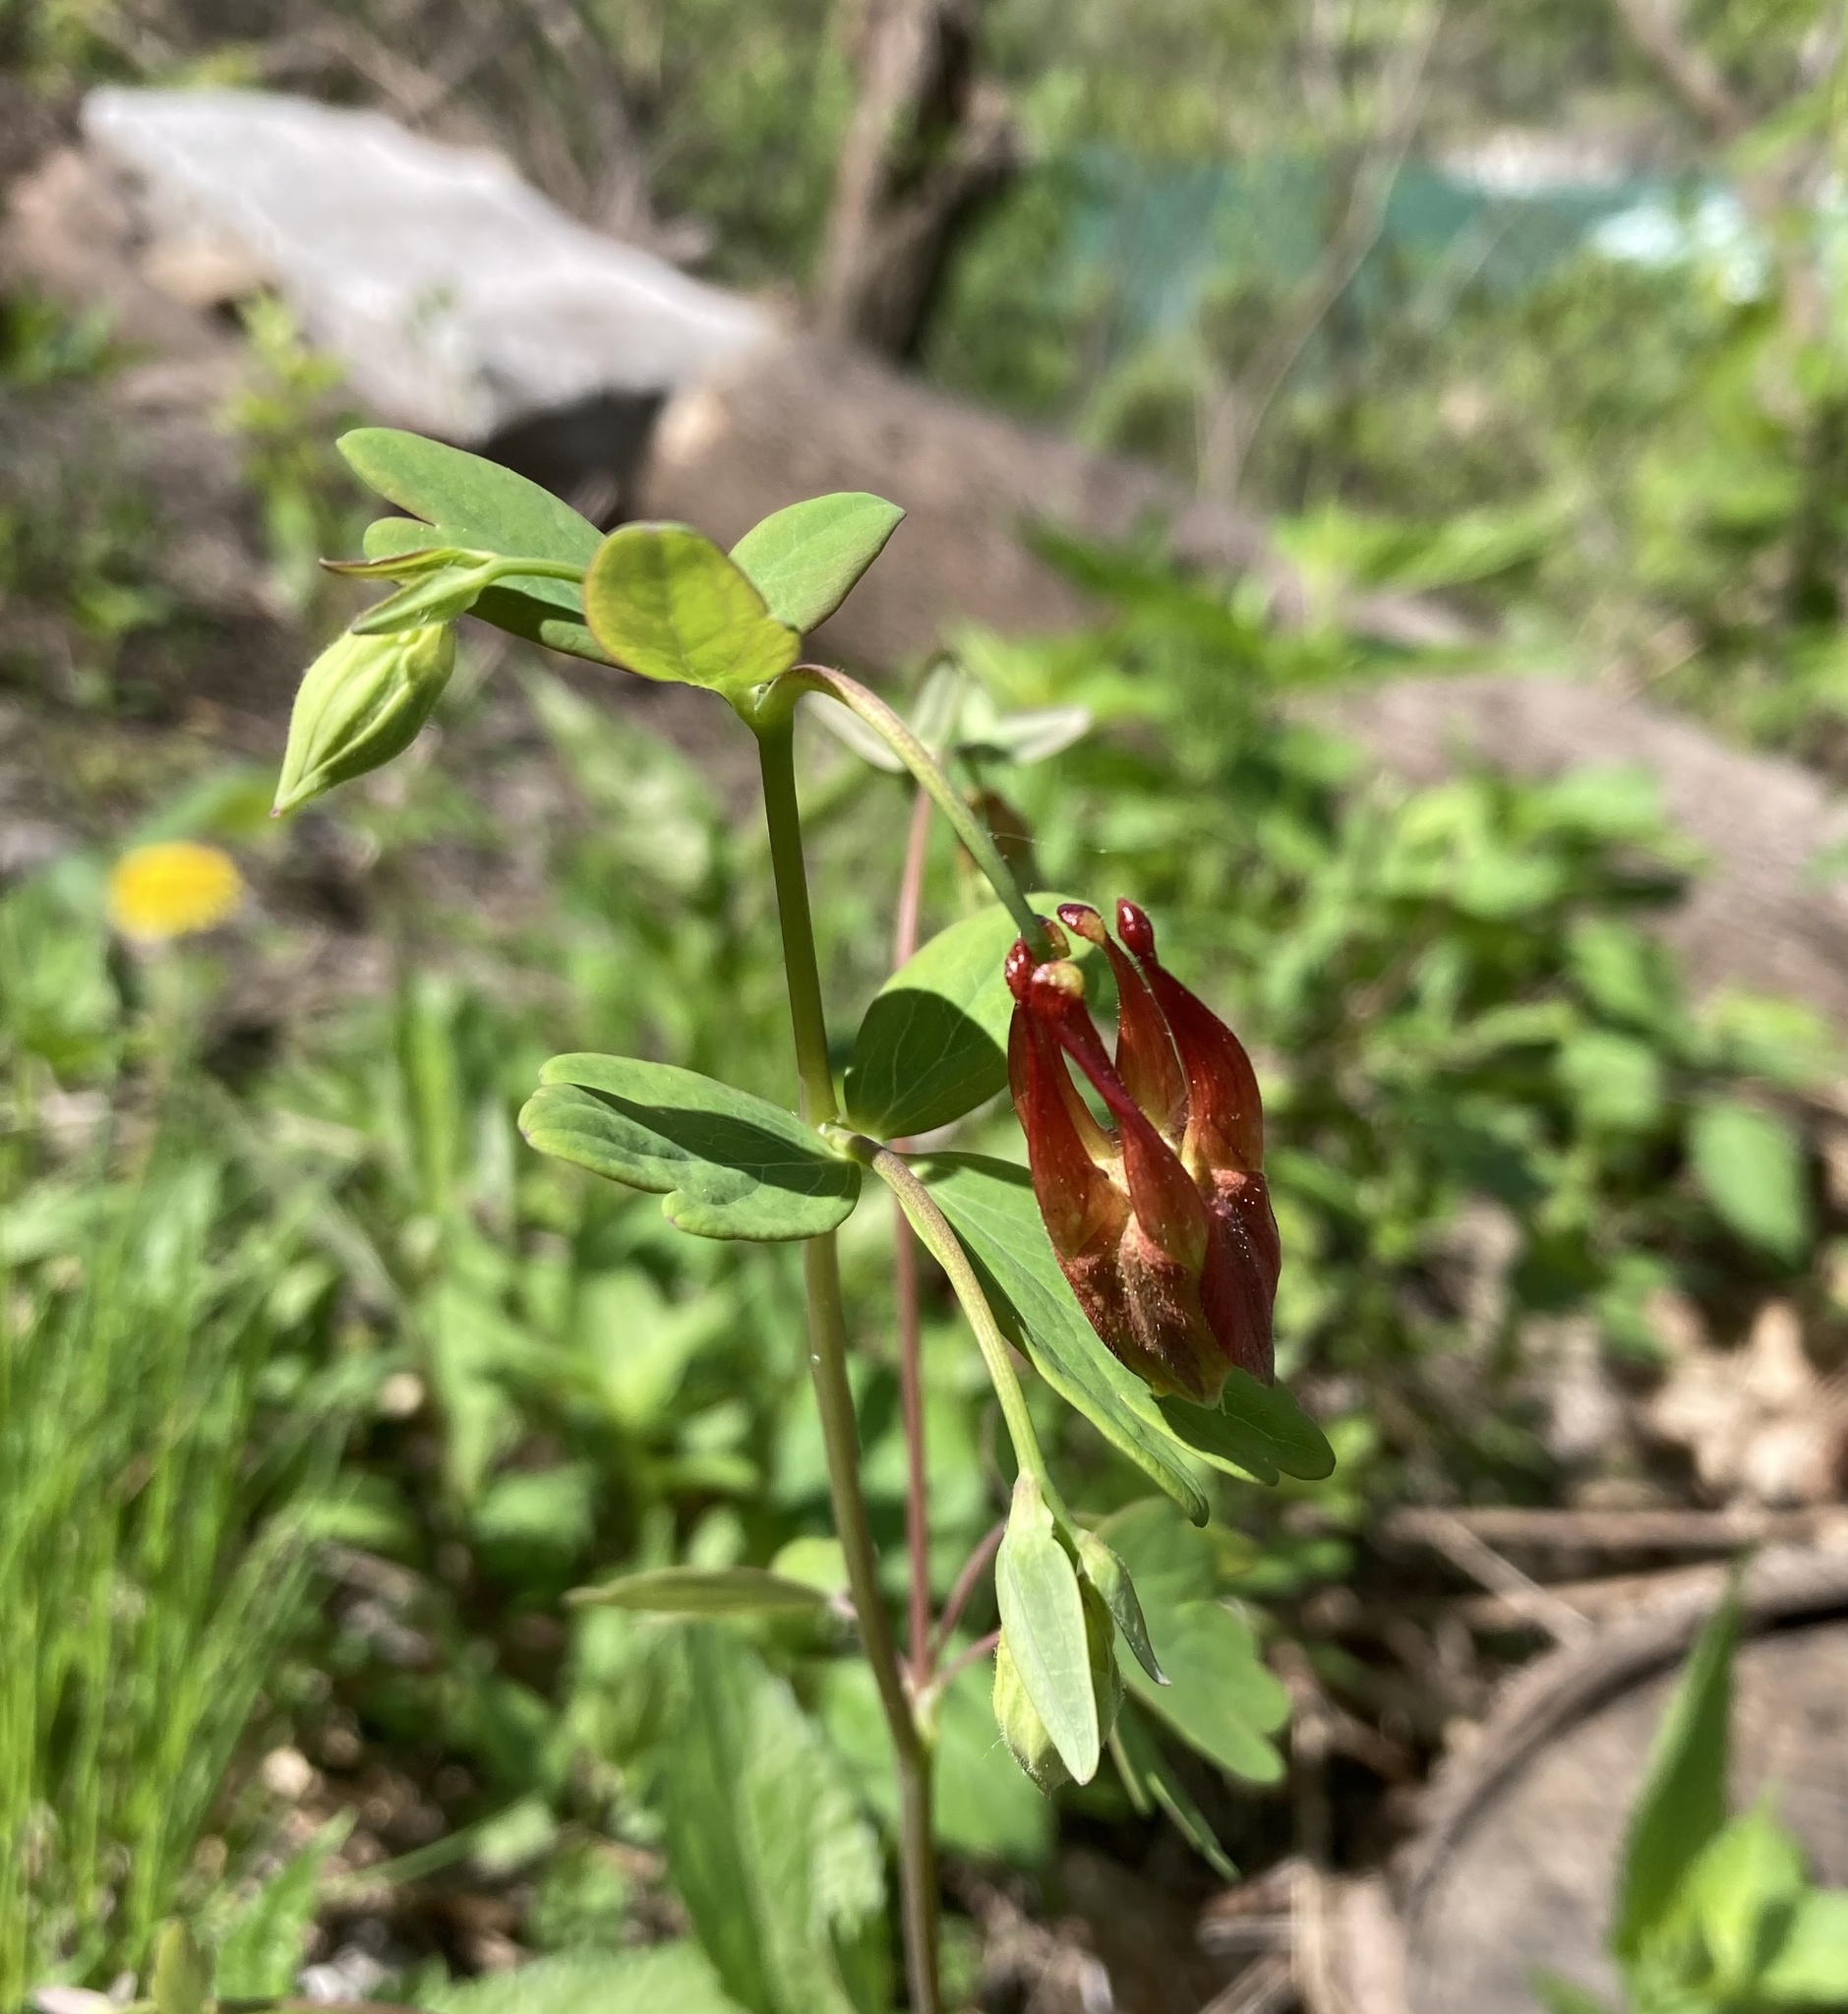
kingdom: Plantae
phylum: Tracheophyta
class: Magnoliopsida
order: Ranunculales
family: Ranunculaceae
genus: Aquilegia
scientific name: Aquilegia canadensis
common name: American columbine
